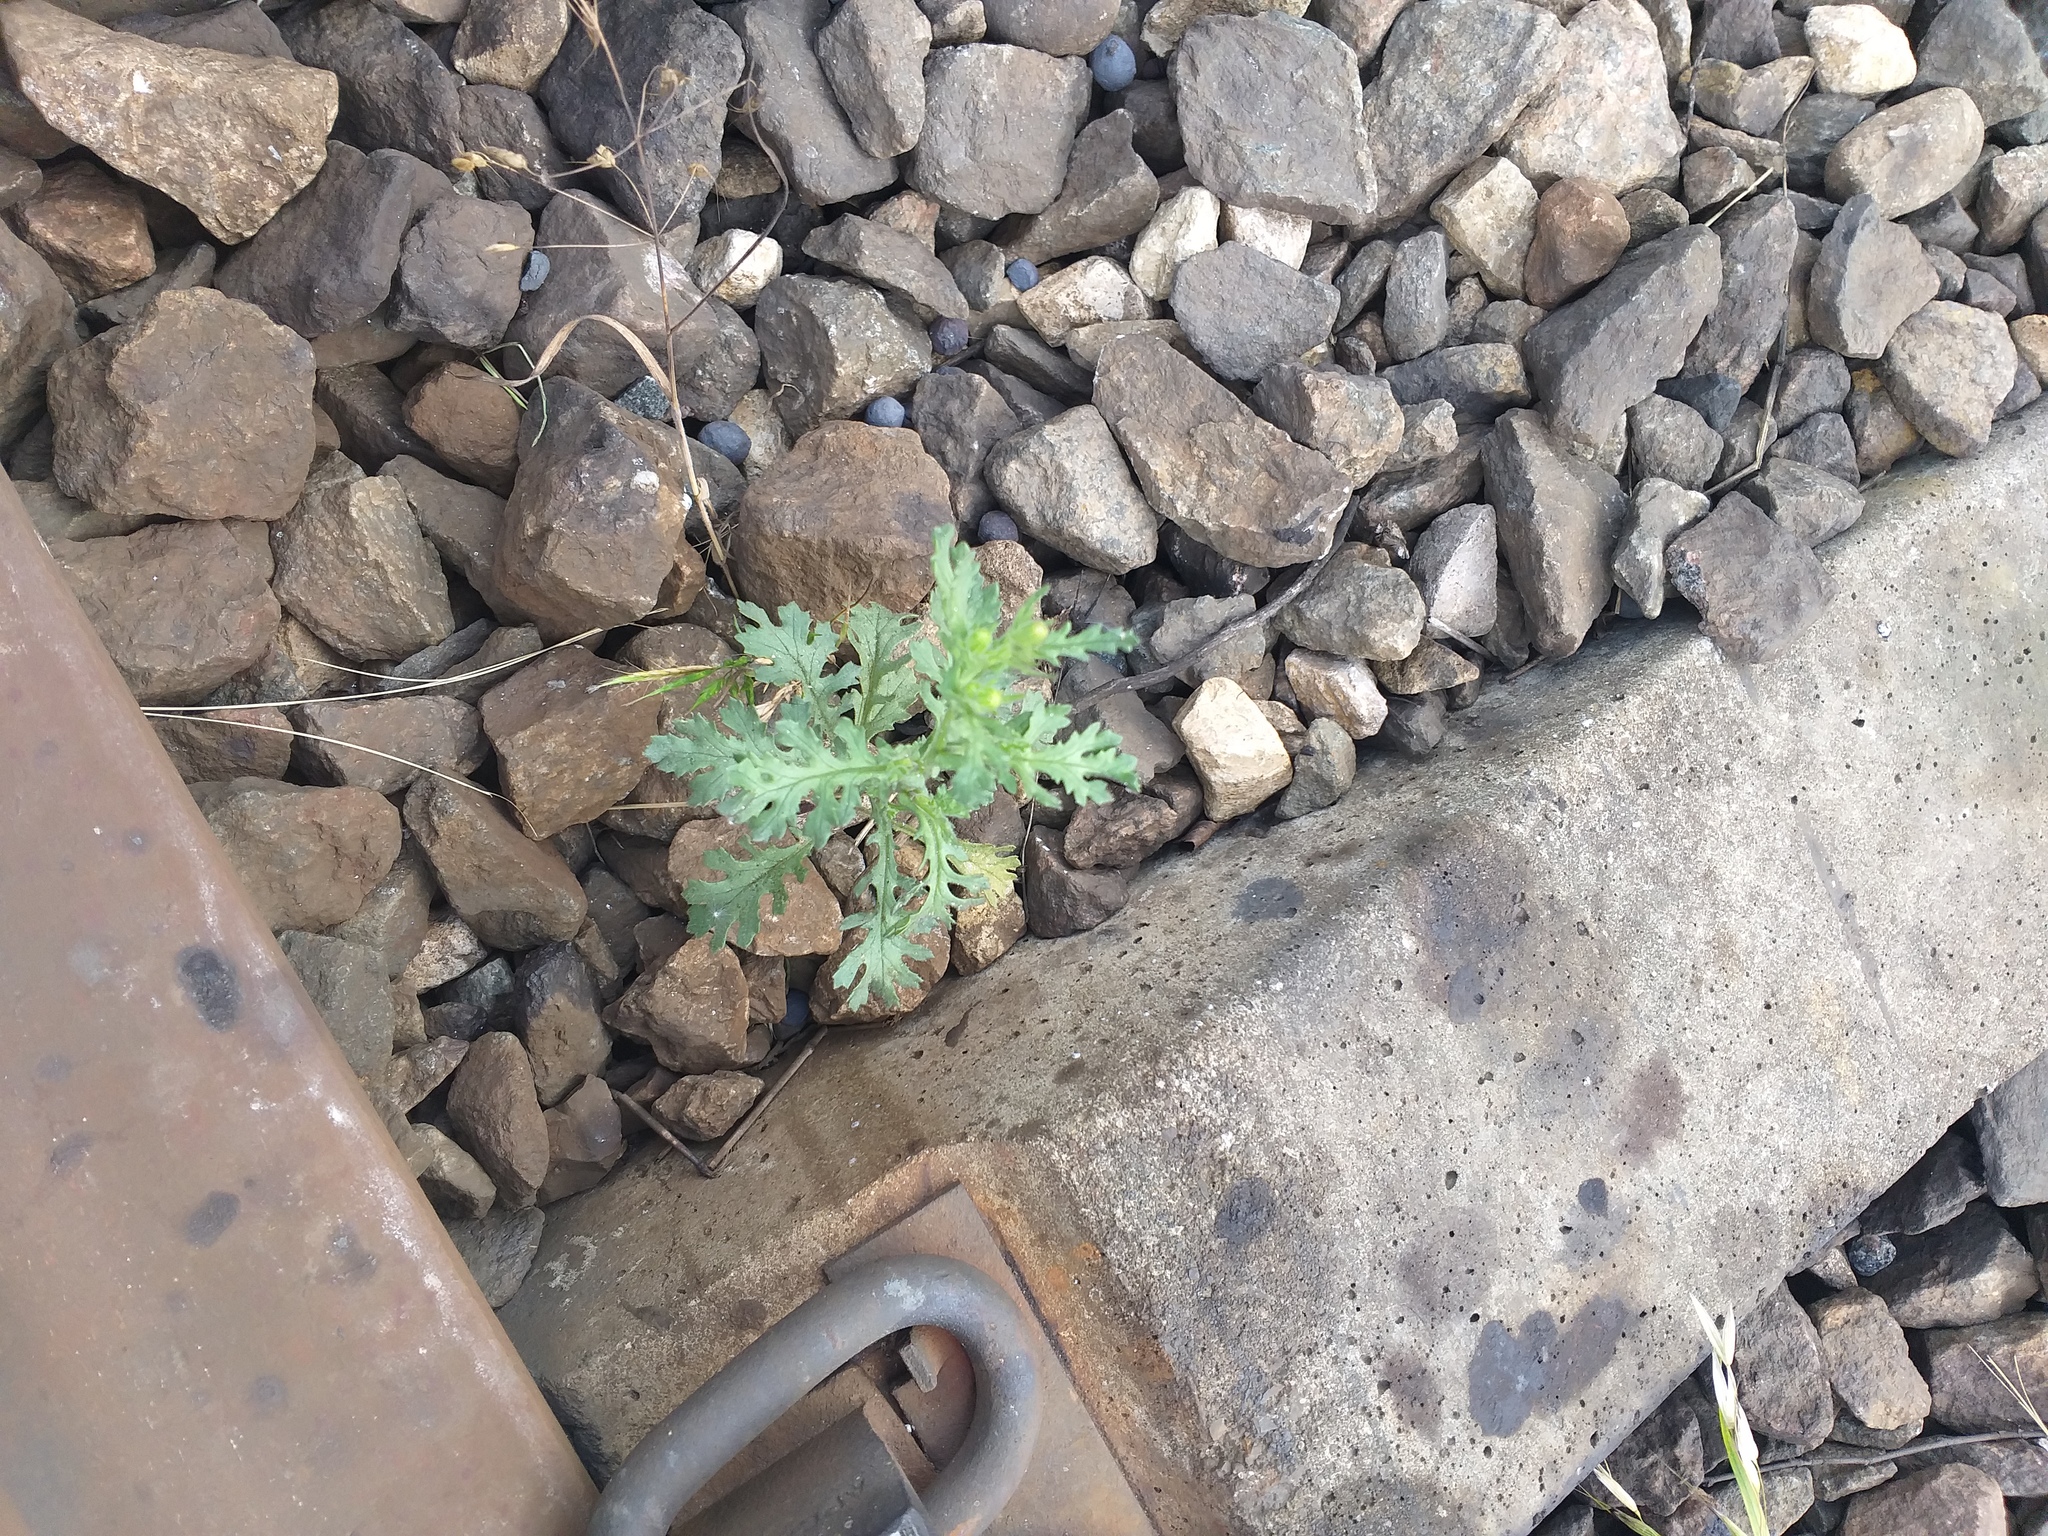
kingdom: Plantae
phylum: Tracheophyta
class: Magnoliopsida
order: Asterales
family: Asteraceae
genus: Senecio
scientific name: Senecio viscosus
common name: Sticky groundsel
